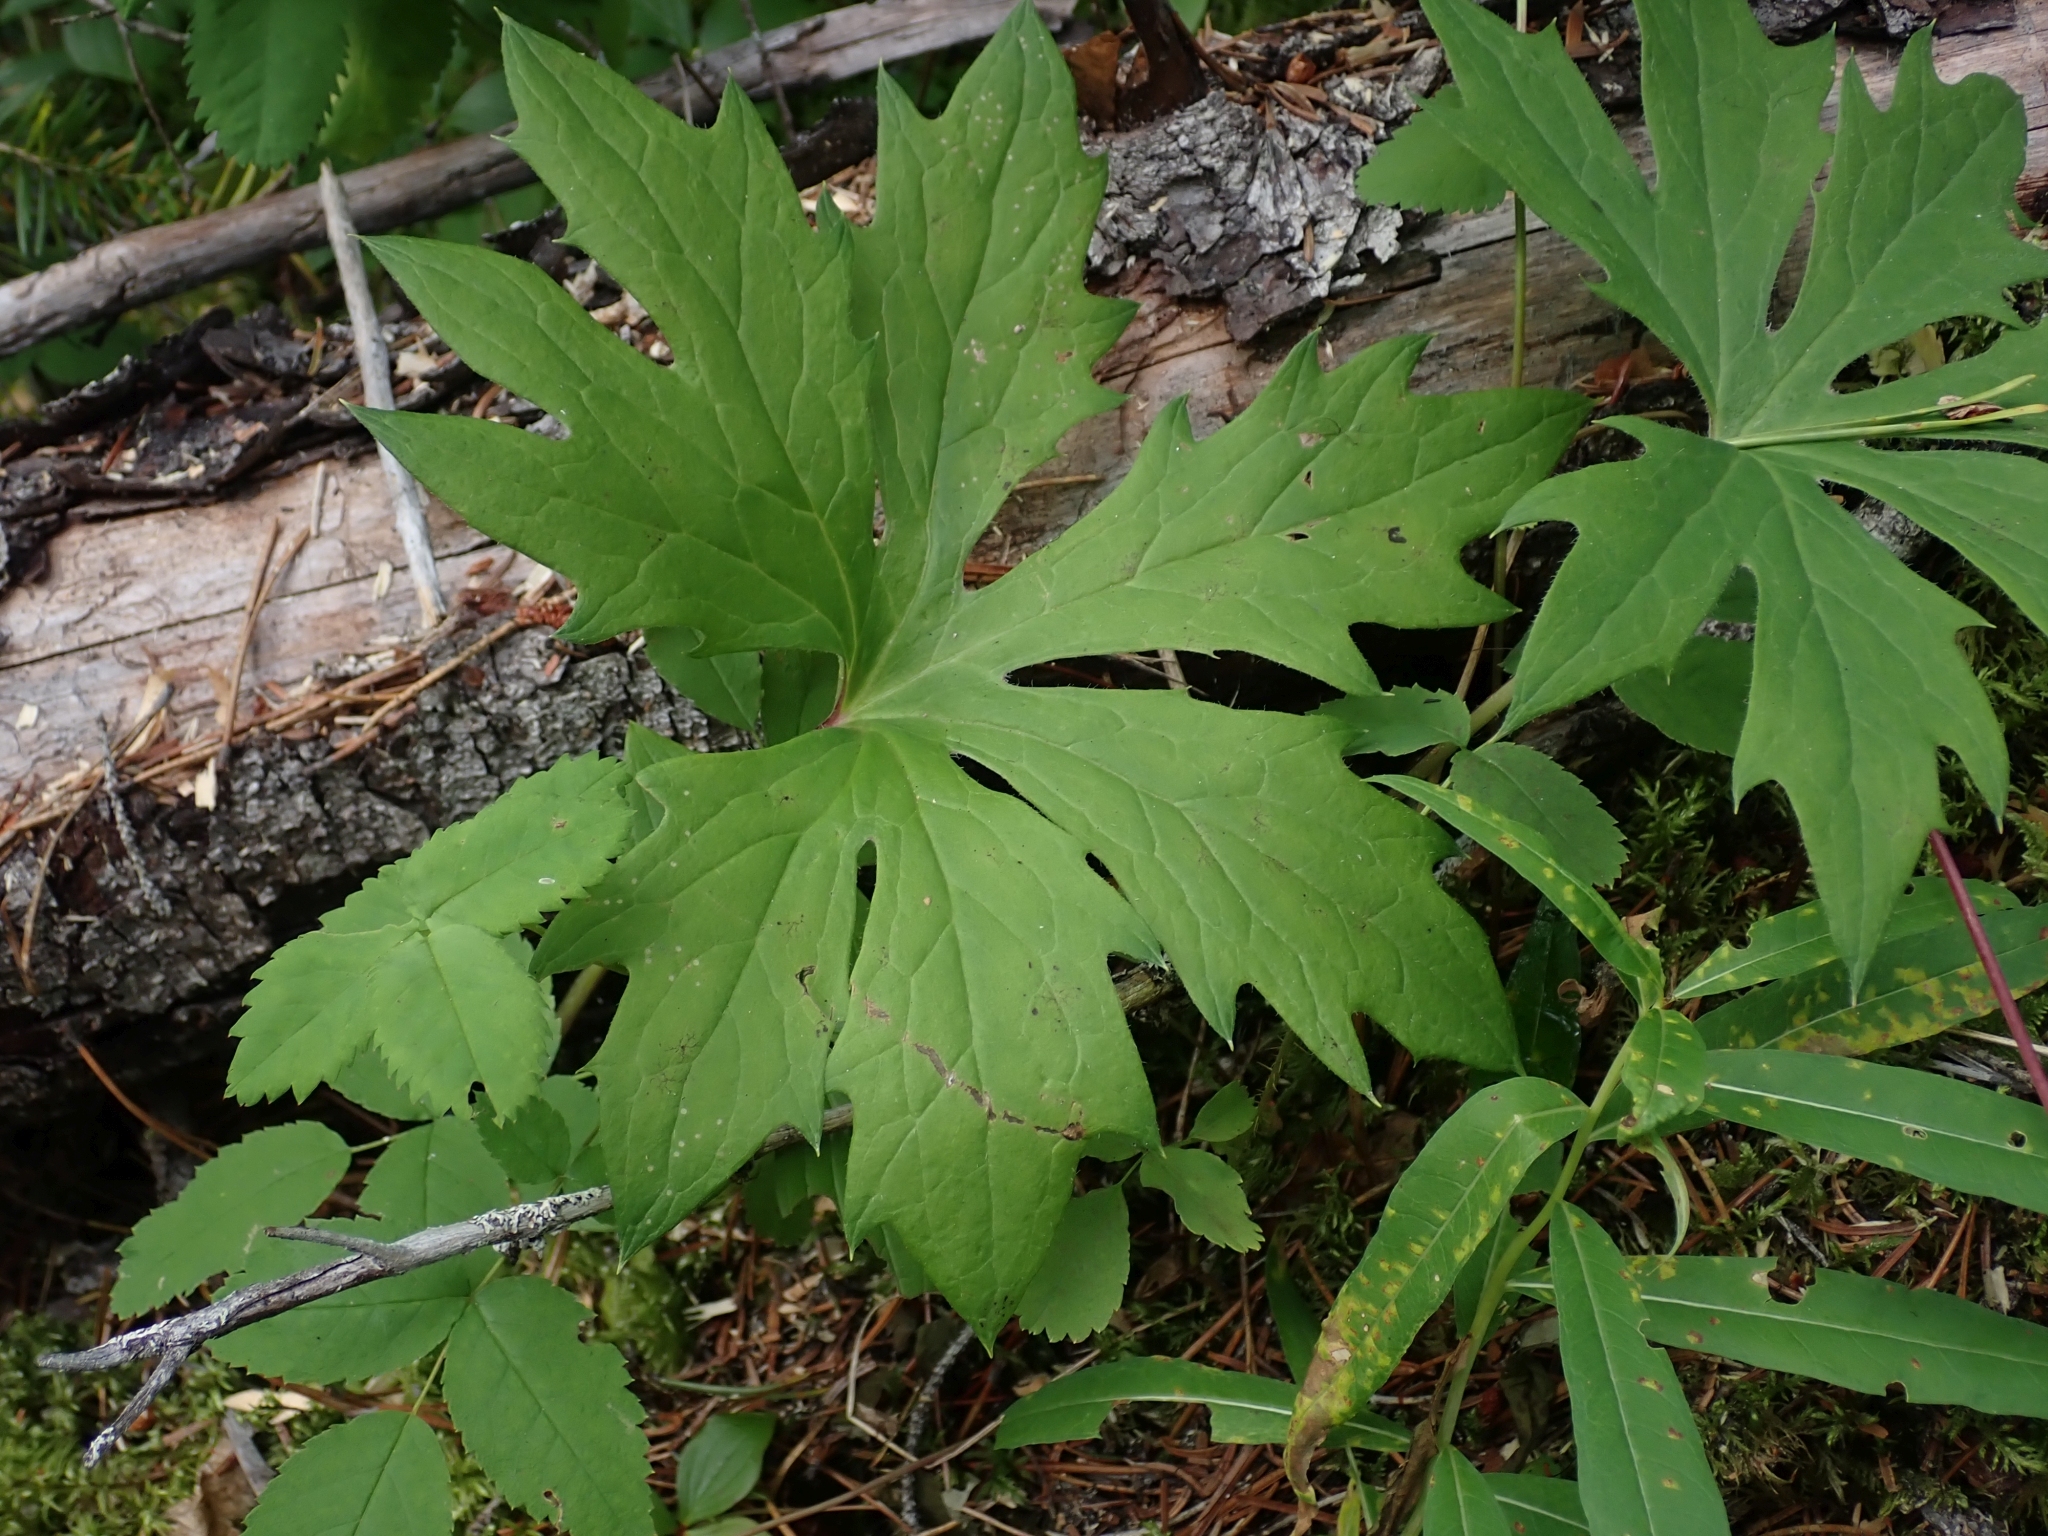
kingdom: Plantae
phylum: Tracheophyta
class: Magnoliopsida
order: Asterales
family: Asteraceae
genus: Petasites
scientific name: Petasites frigidus
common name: Arctic butterbur
